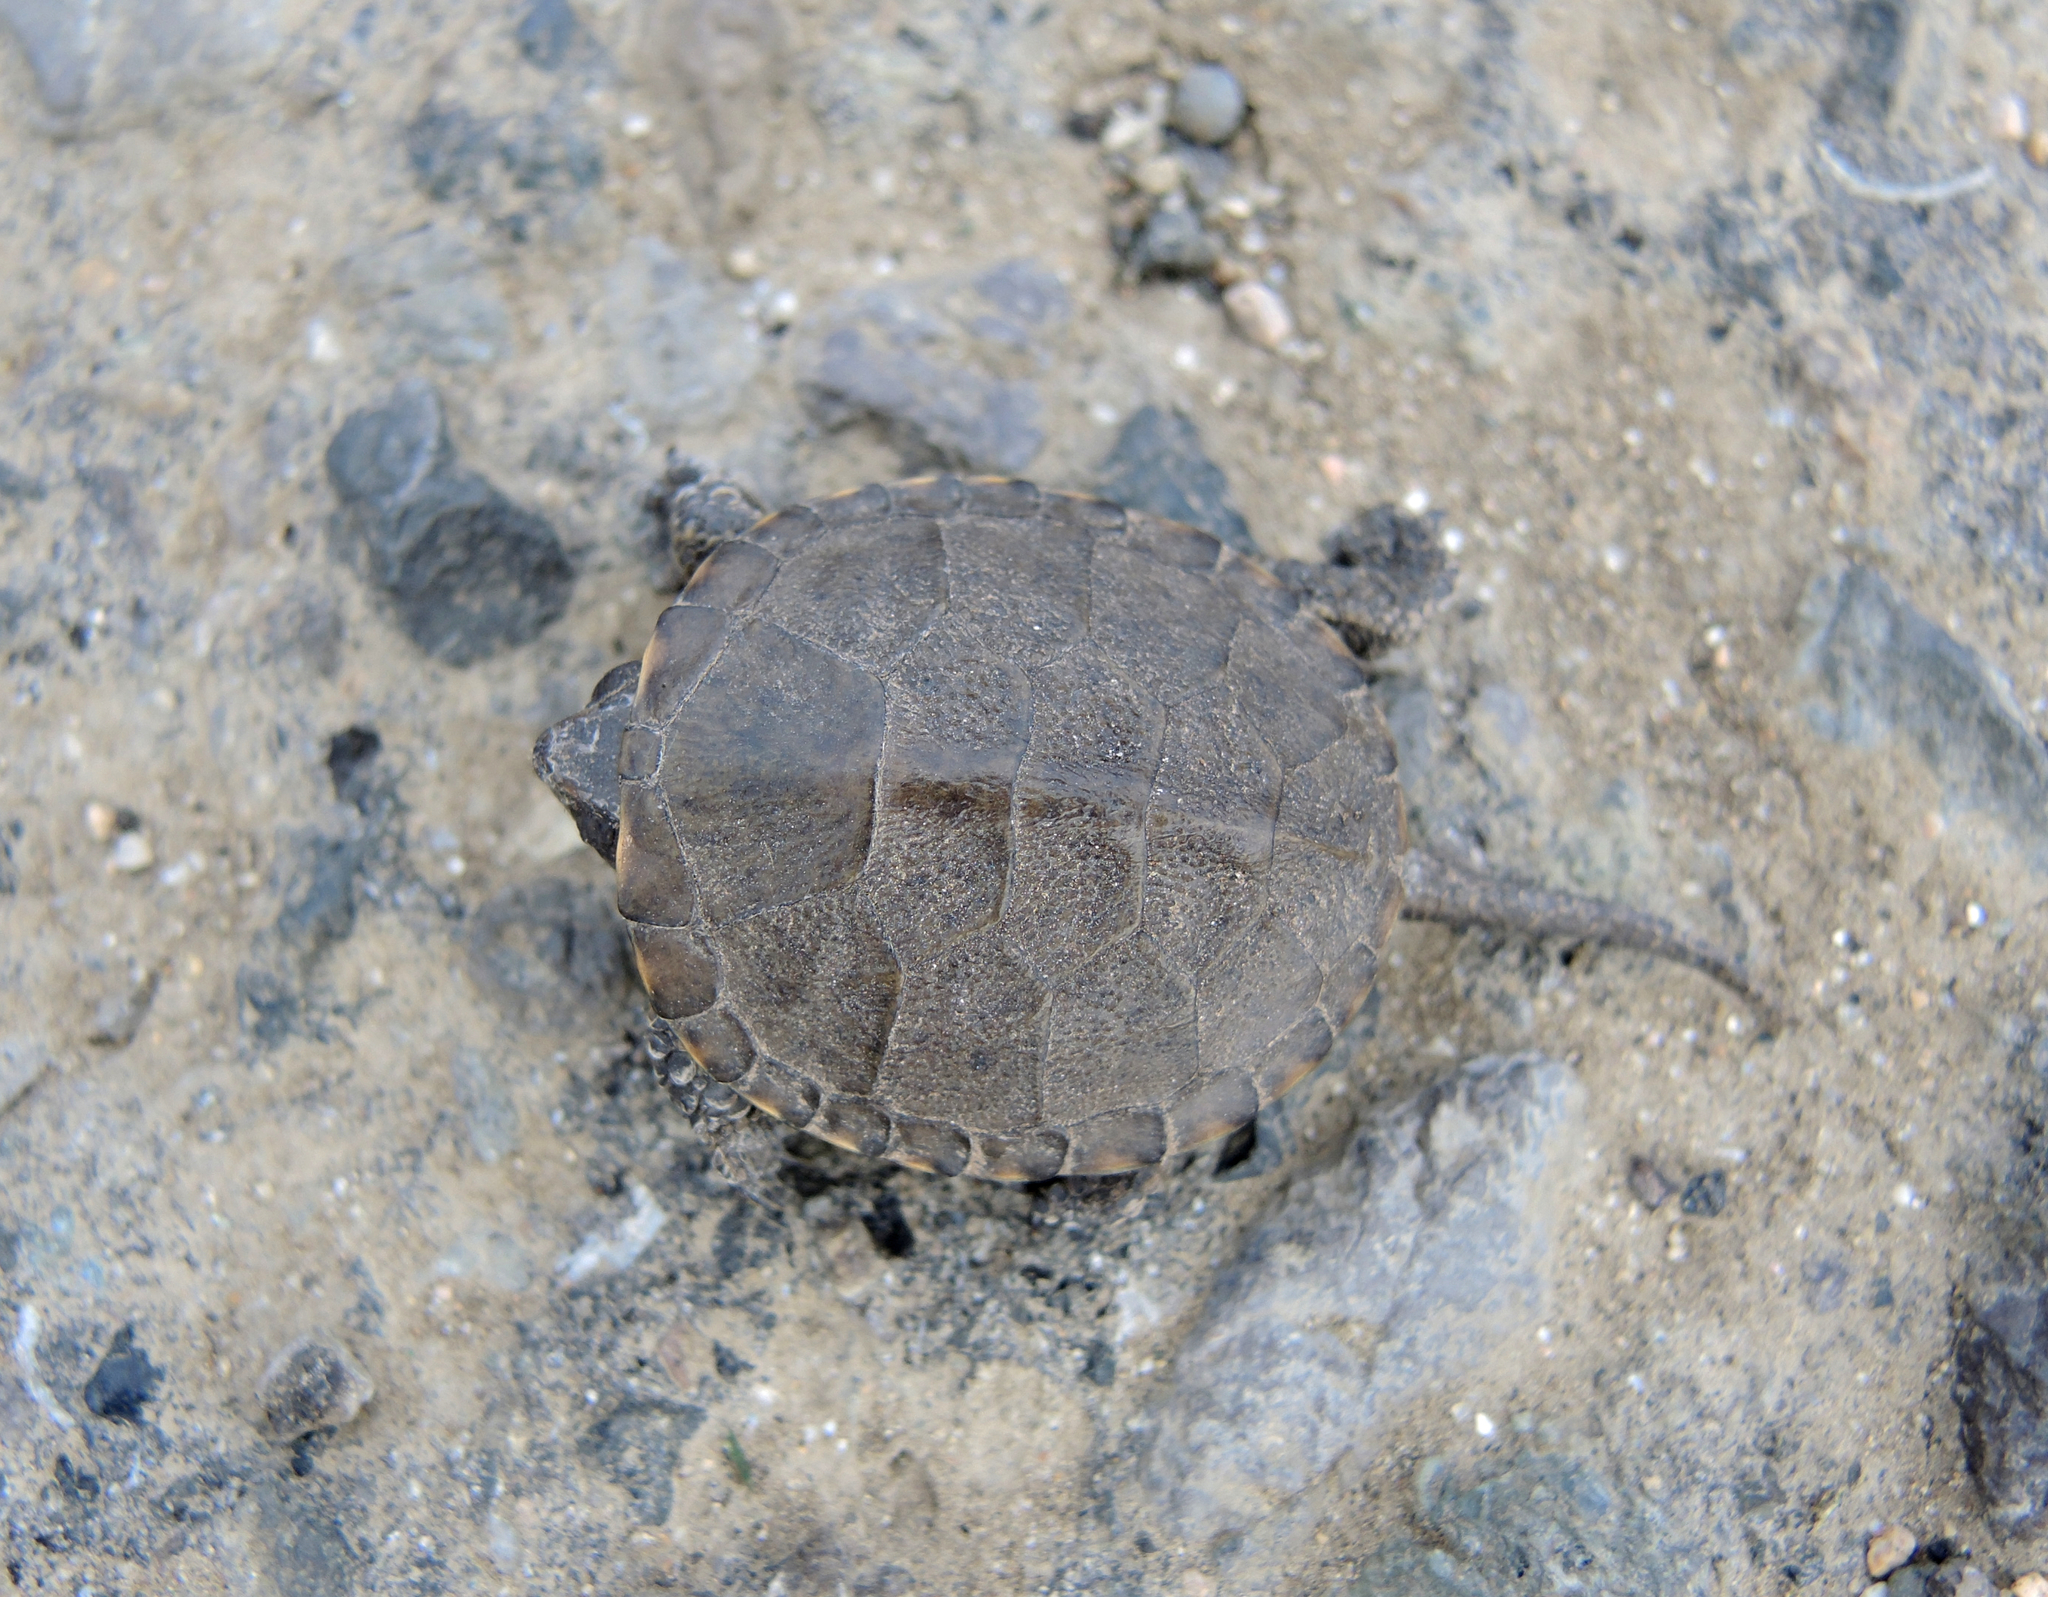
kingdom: Animalia
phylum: Chordata
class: Testudines
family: Emydidae
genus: Emys
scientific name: Emys orbicularis
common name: European pond turtle
